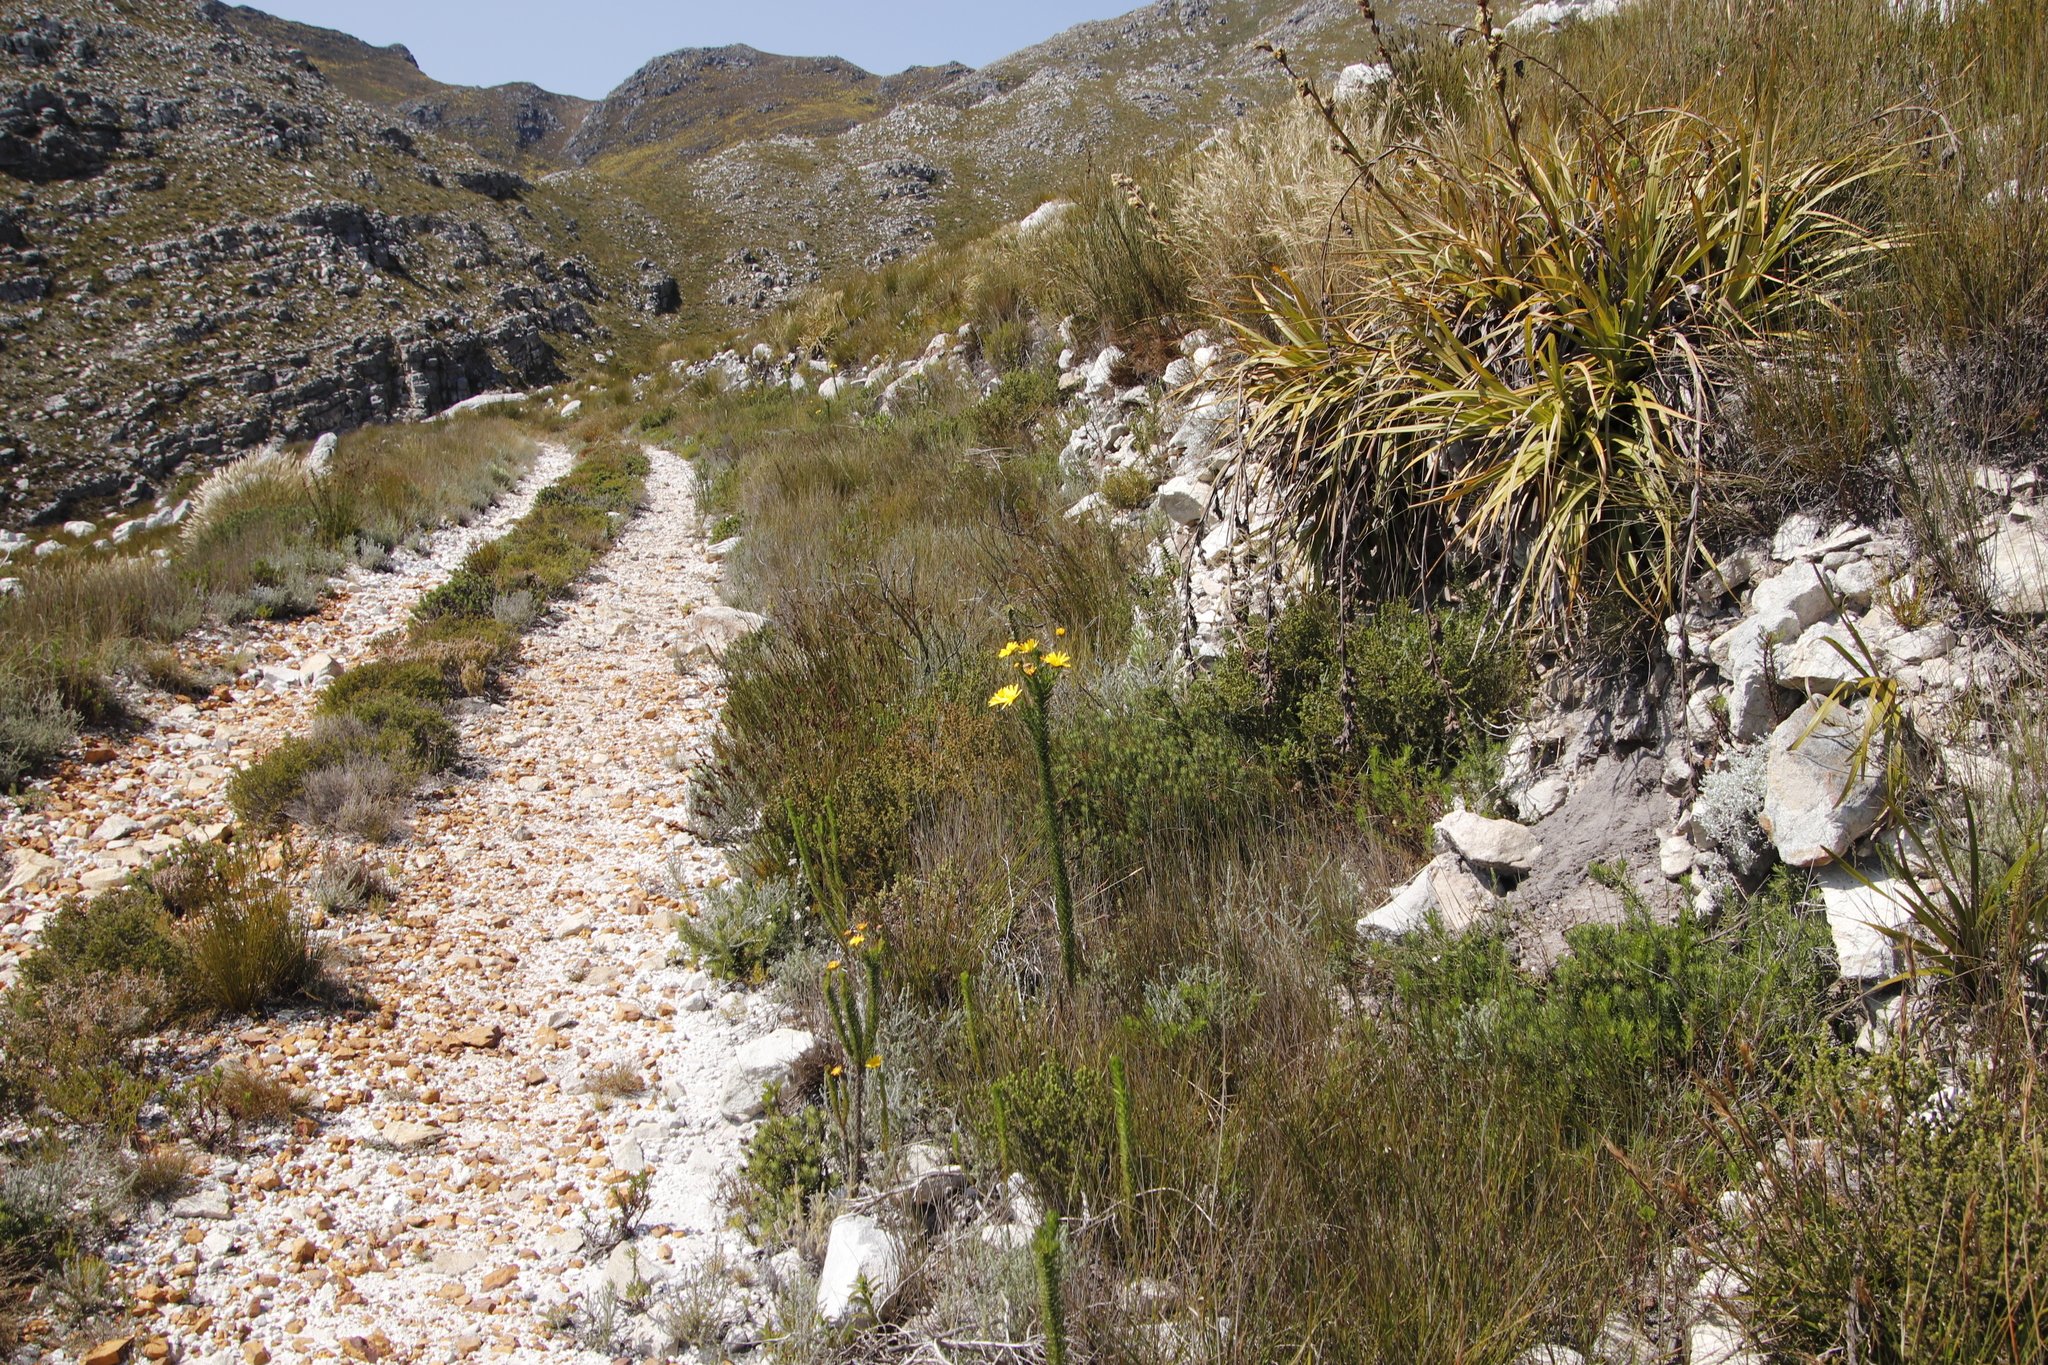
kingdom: Plantae
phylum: Tracheophyta
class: Liliopsida
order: Poales
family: Cyperaceae
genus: Tetraria
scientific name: Tetraria thermalis
